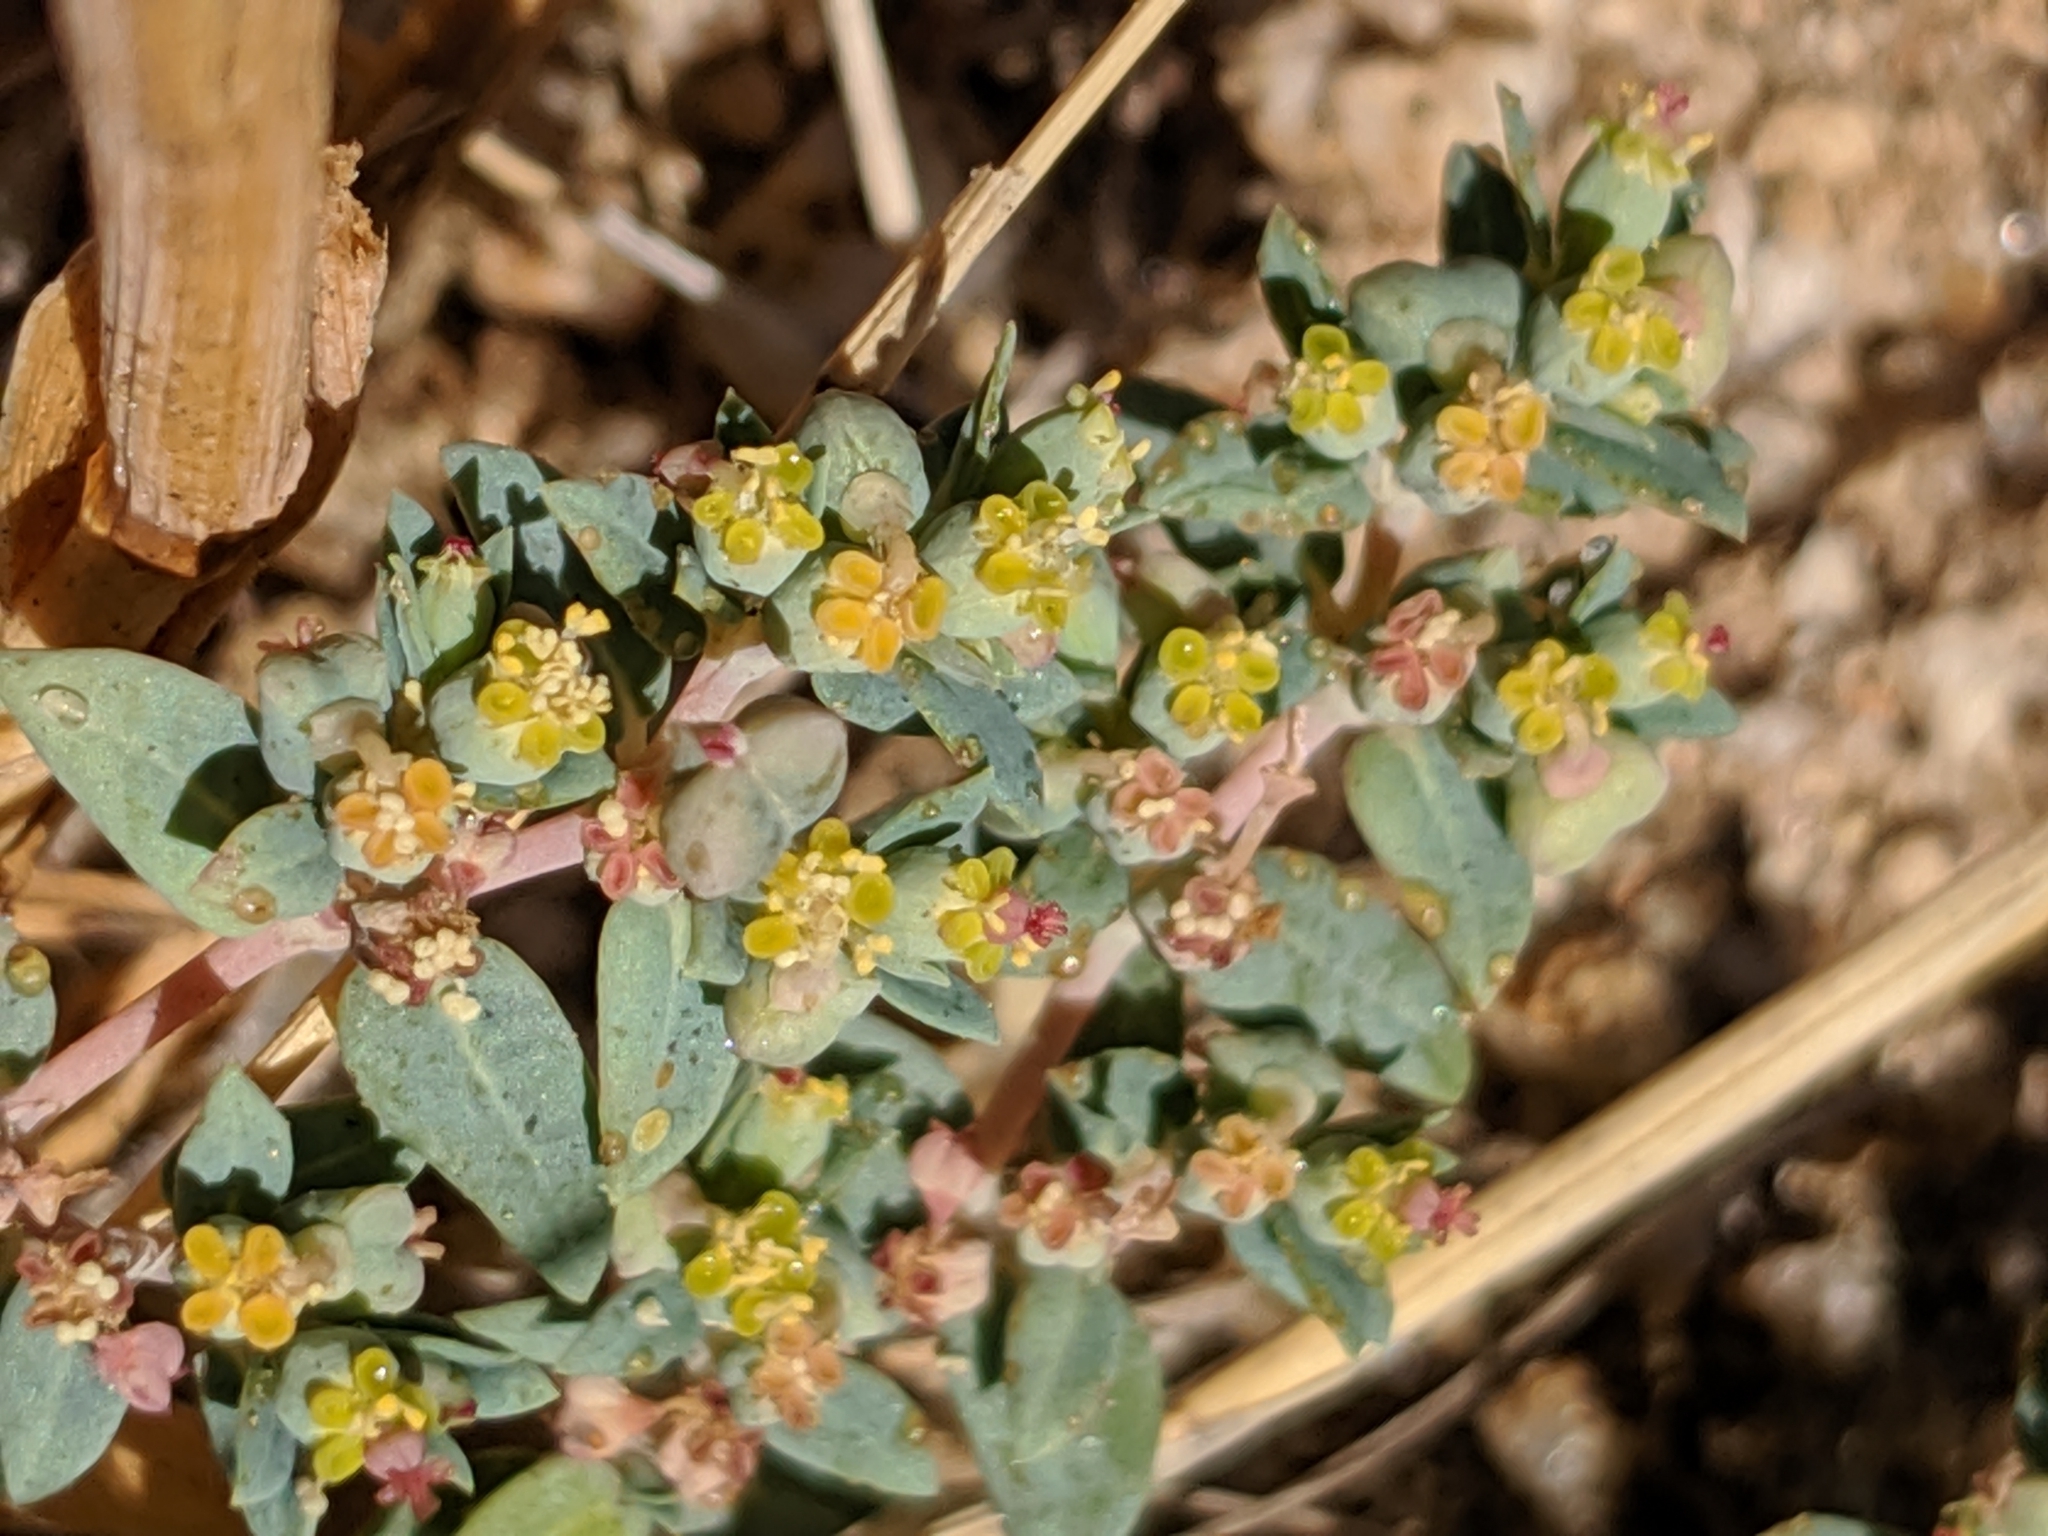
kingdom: Plantae
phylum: Tracheophyta
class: Magnoliopsida
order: Malpighiales
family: Euphorbiaceae
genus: Euphorbia
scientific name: Euphorbia ocellata
